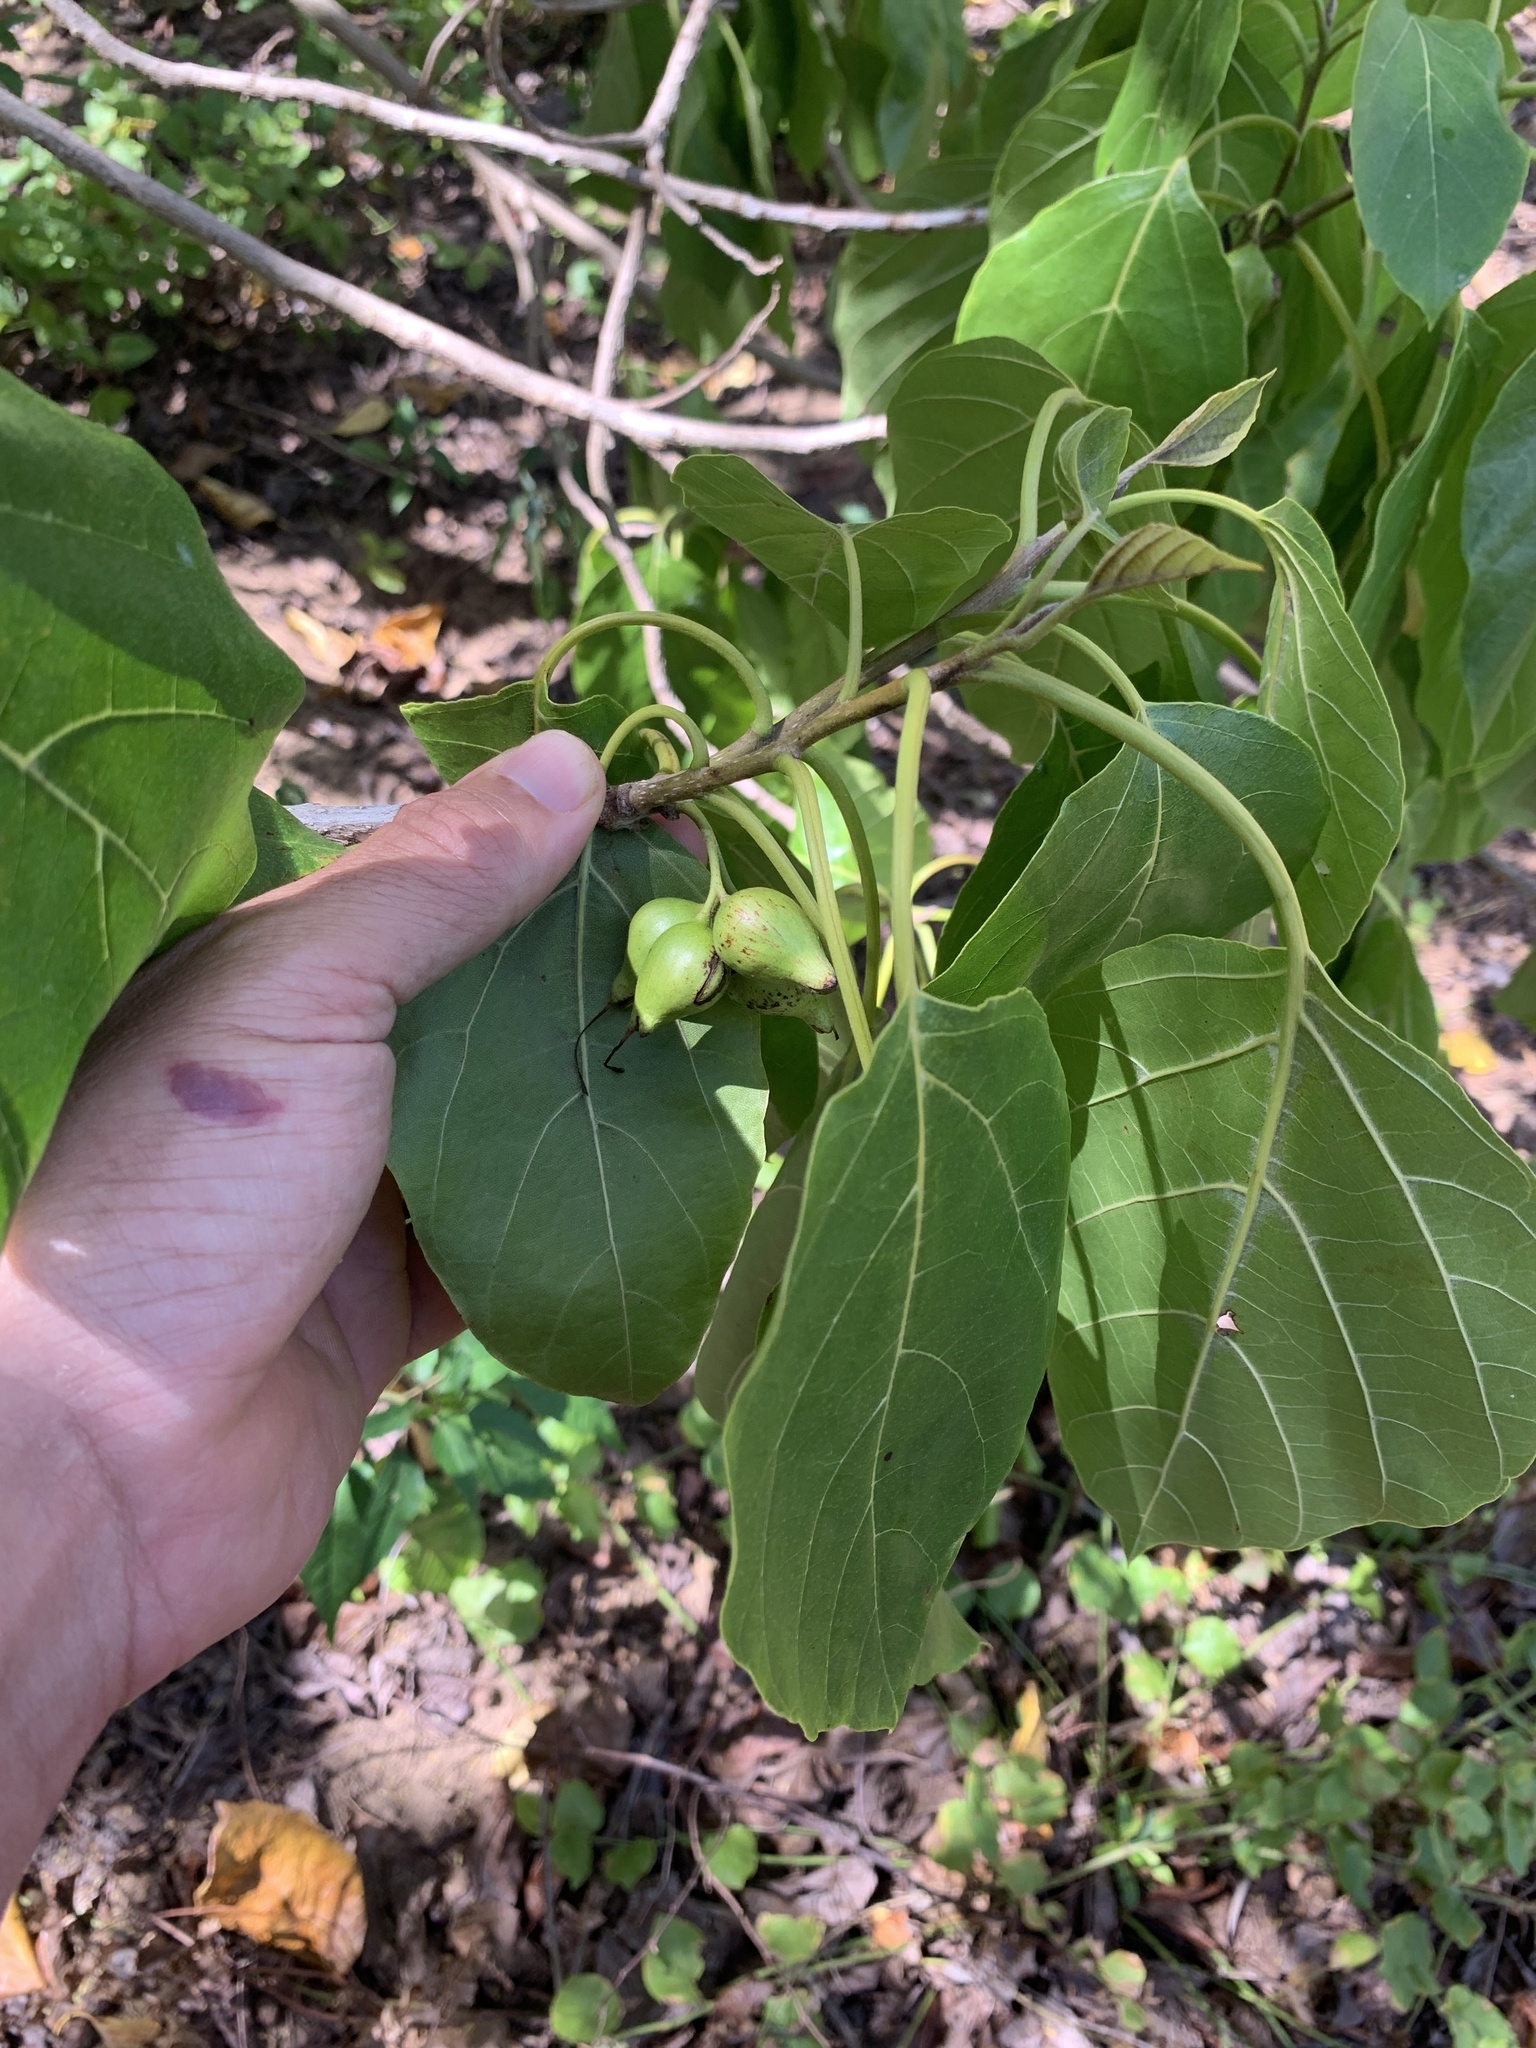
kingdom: Plantae
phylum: Tracheophyta
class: Magnoliopsida
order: Boraginales
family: Cordiaceae
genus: Cordia
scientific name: Cordia subcordata
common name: Mareer
